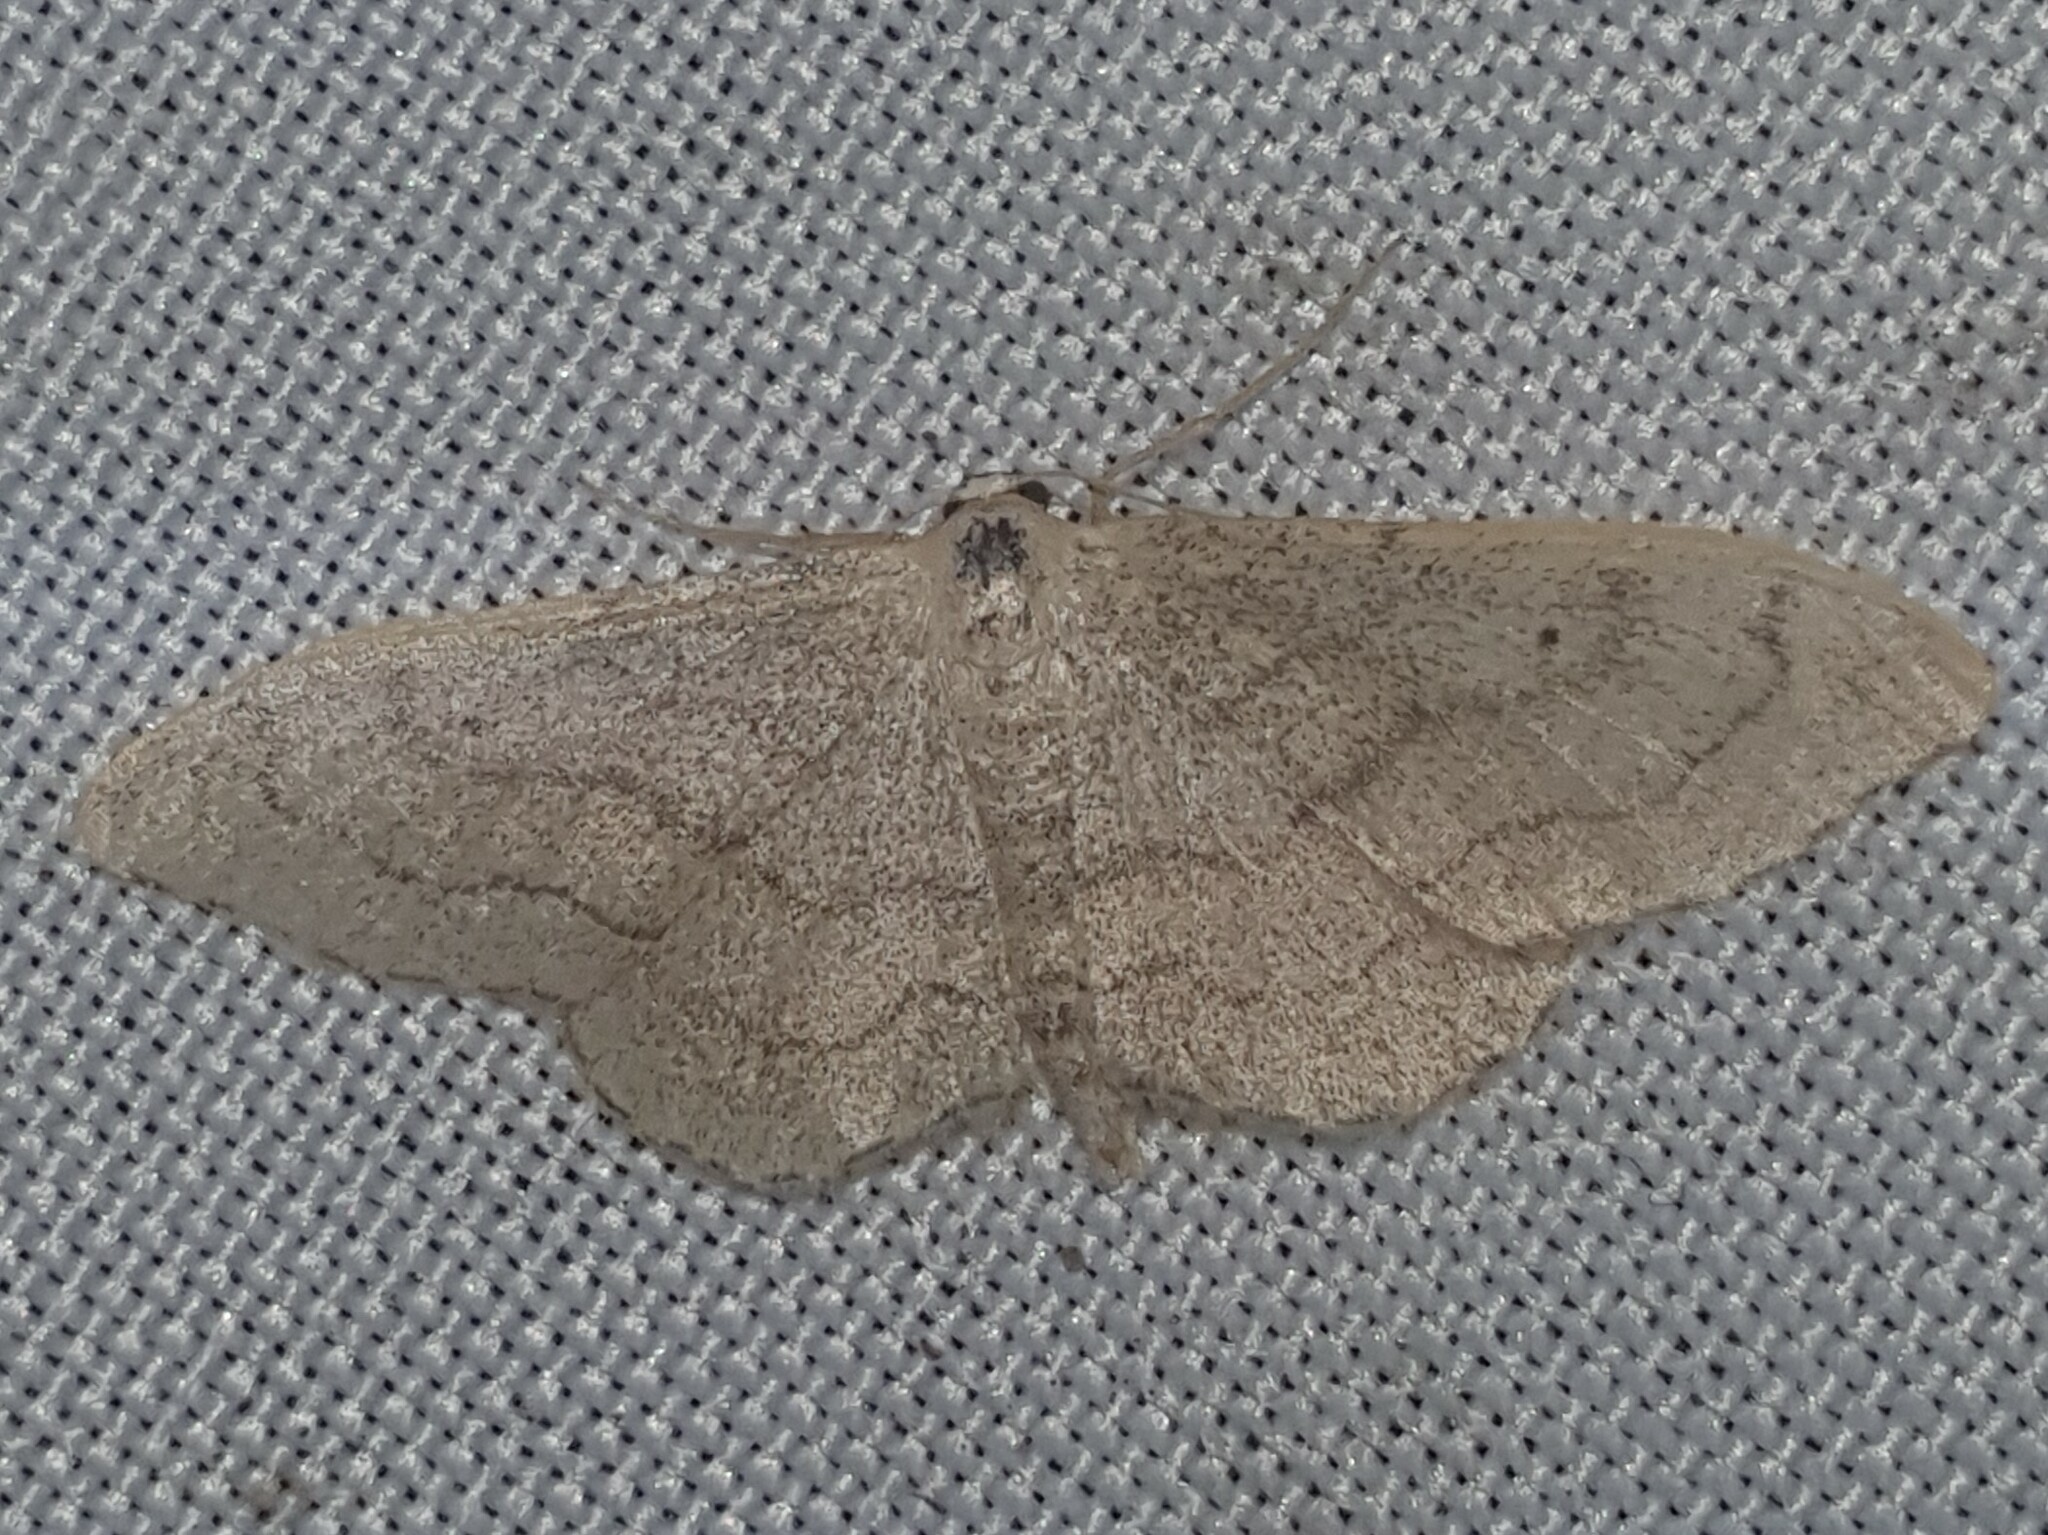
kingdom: Animalia
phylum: Arthropoda
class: Insecta
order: Lepidoptera
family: Geometridae
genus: Idaea
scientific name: Idaea aversata
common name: Riband wave
